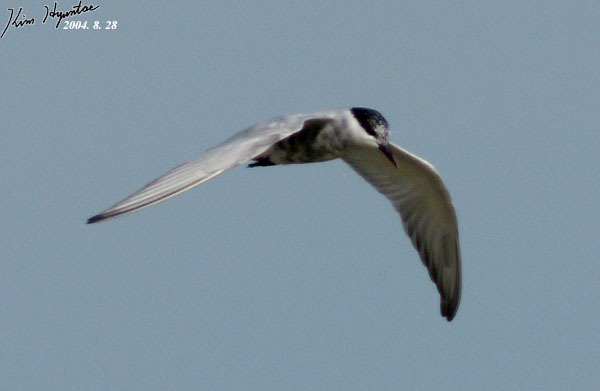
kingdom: Animalia
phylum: Chordata
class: Aves
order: Charadriiformes
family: Laridae
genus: Chlidonias
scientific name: Chlidonias hybrida
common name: Whiskered tern
